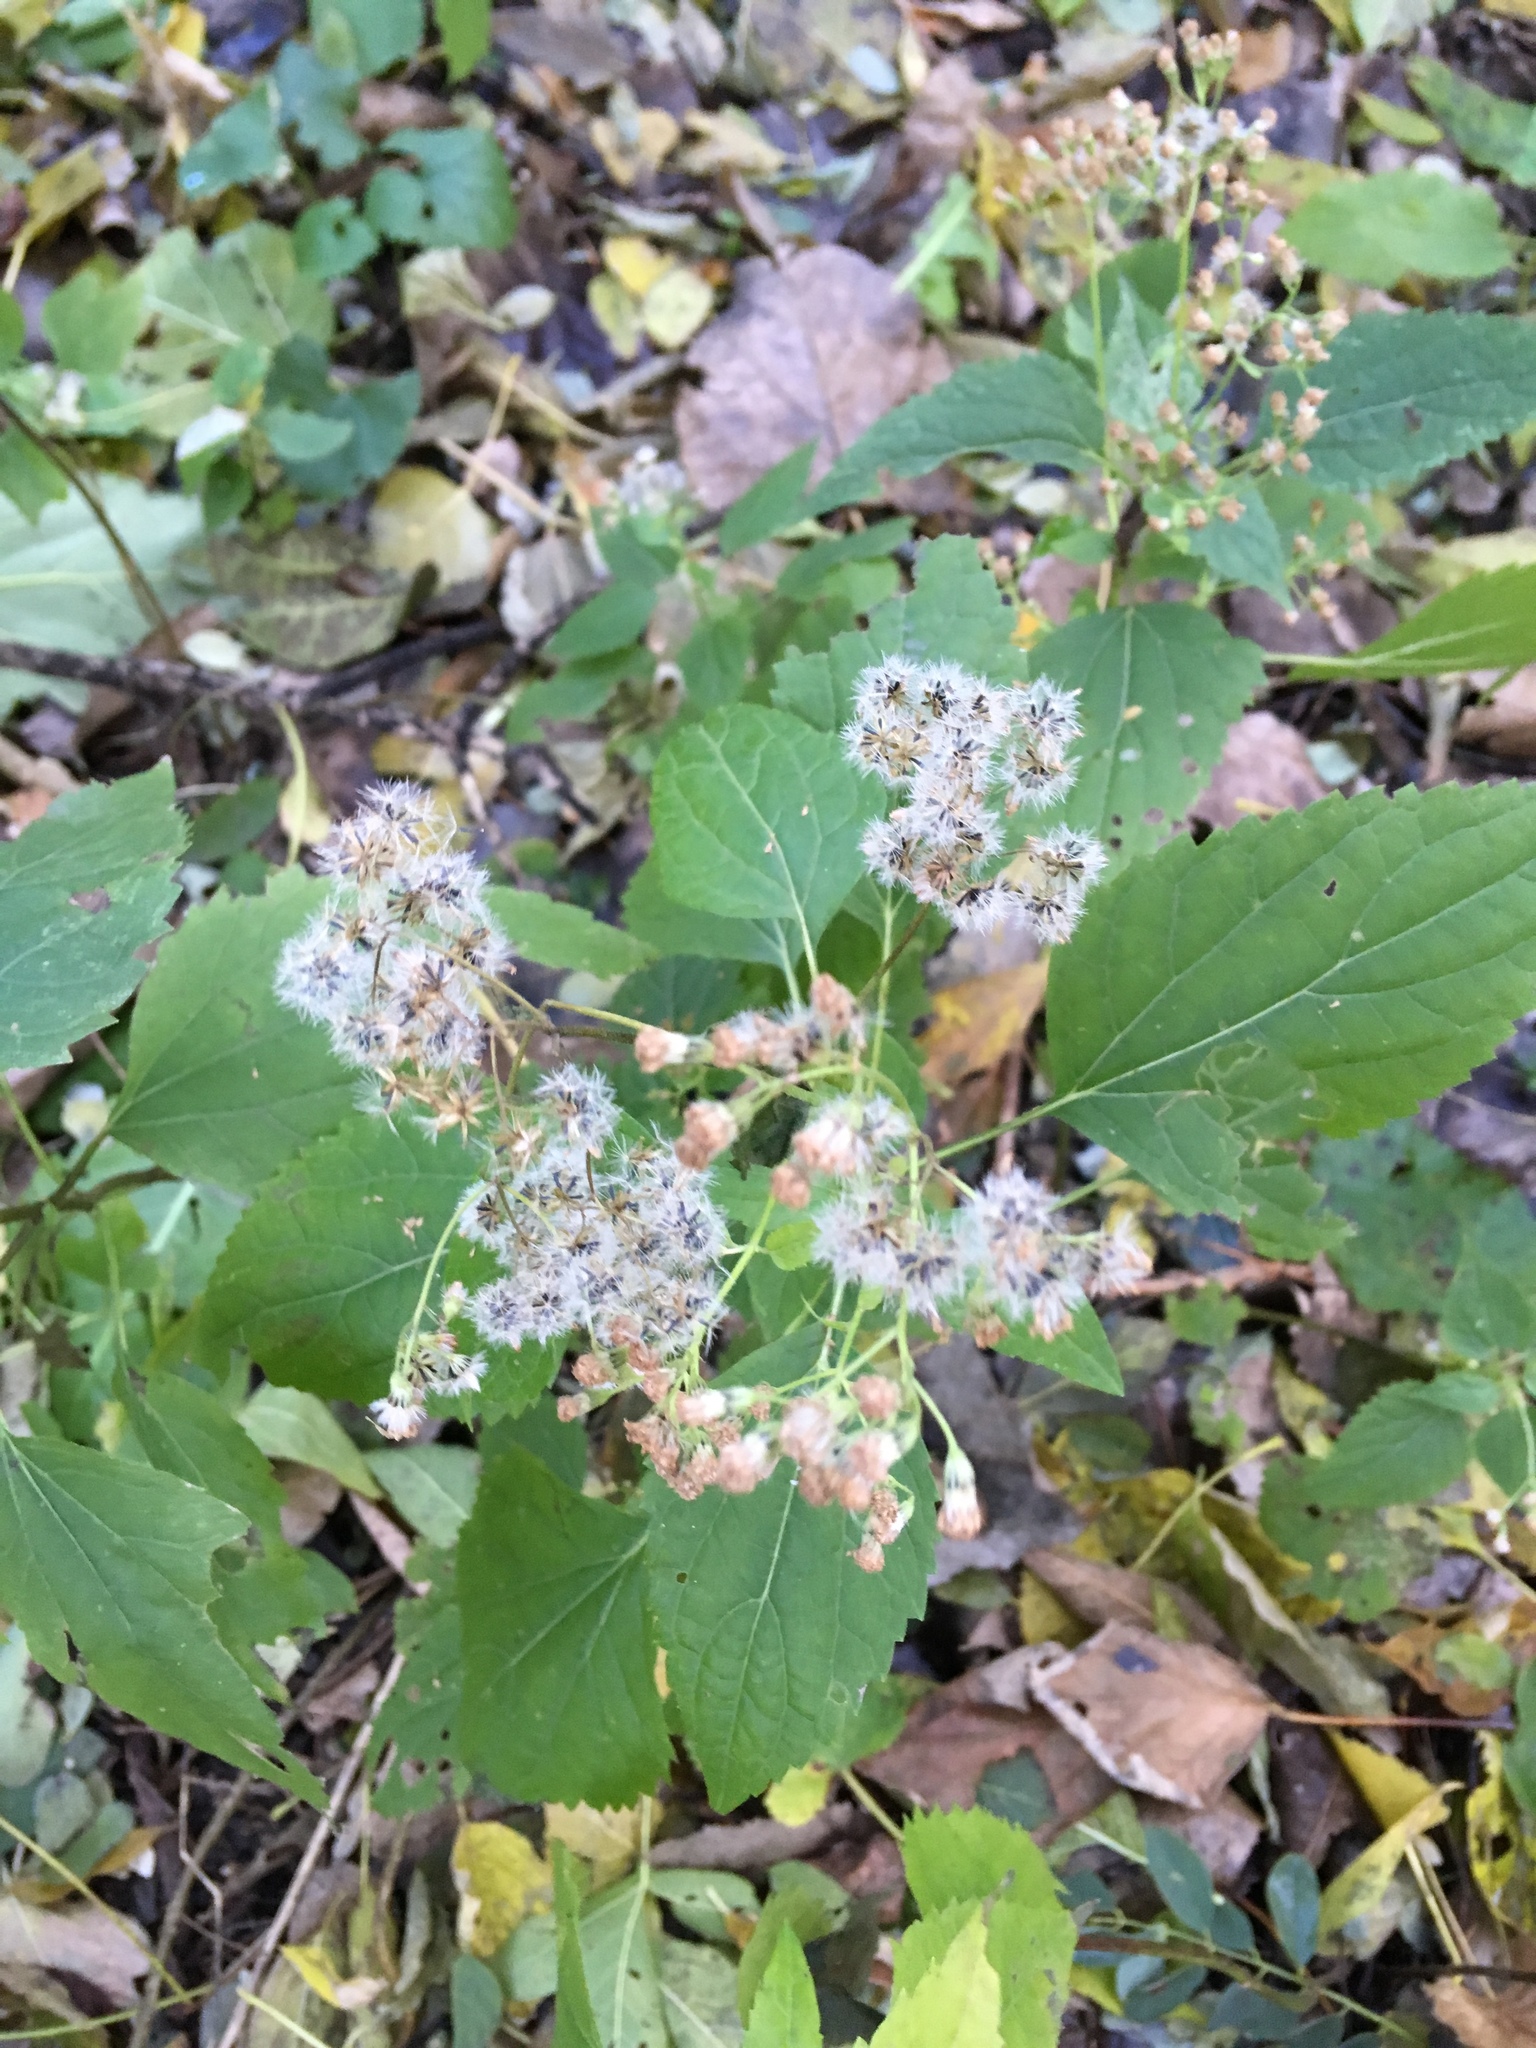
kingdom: Plantae
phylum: Tracheophyta
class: Magnoliopsida
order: Asterales
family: Asteraceae
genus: Ageratina
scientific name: Ageratina altissima
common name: White snakeroot
